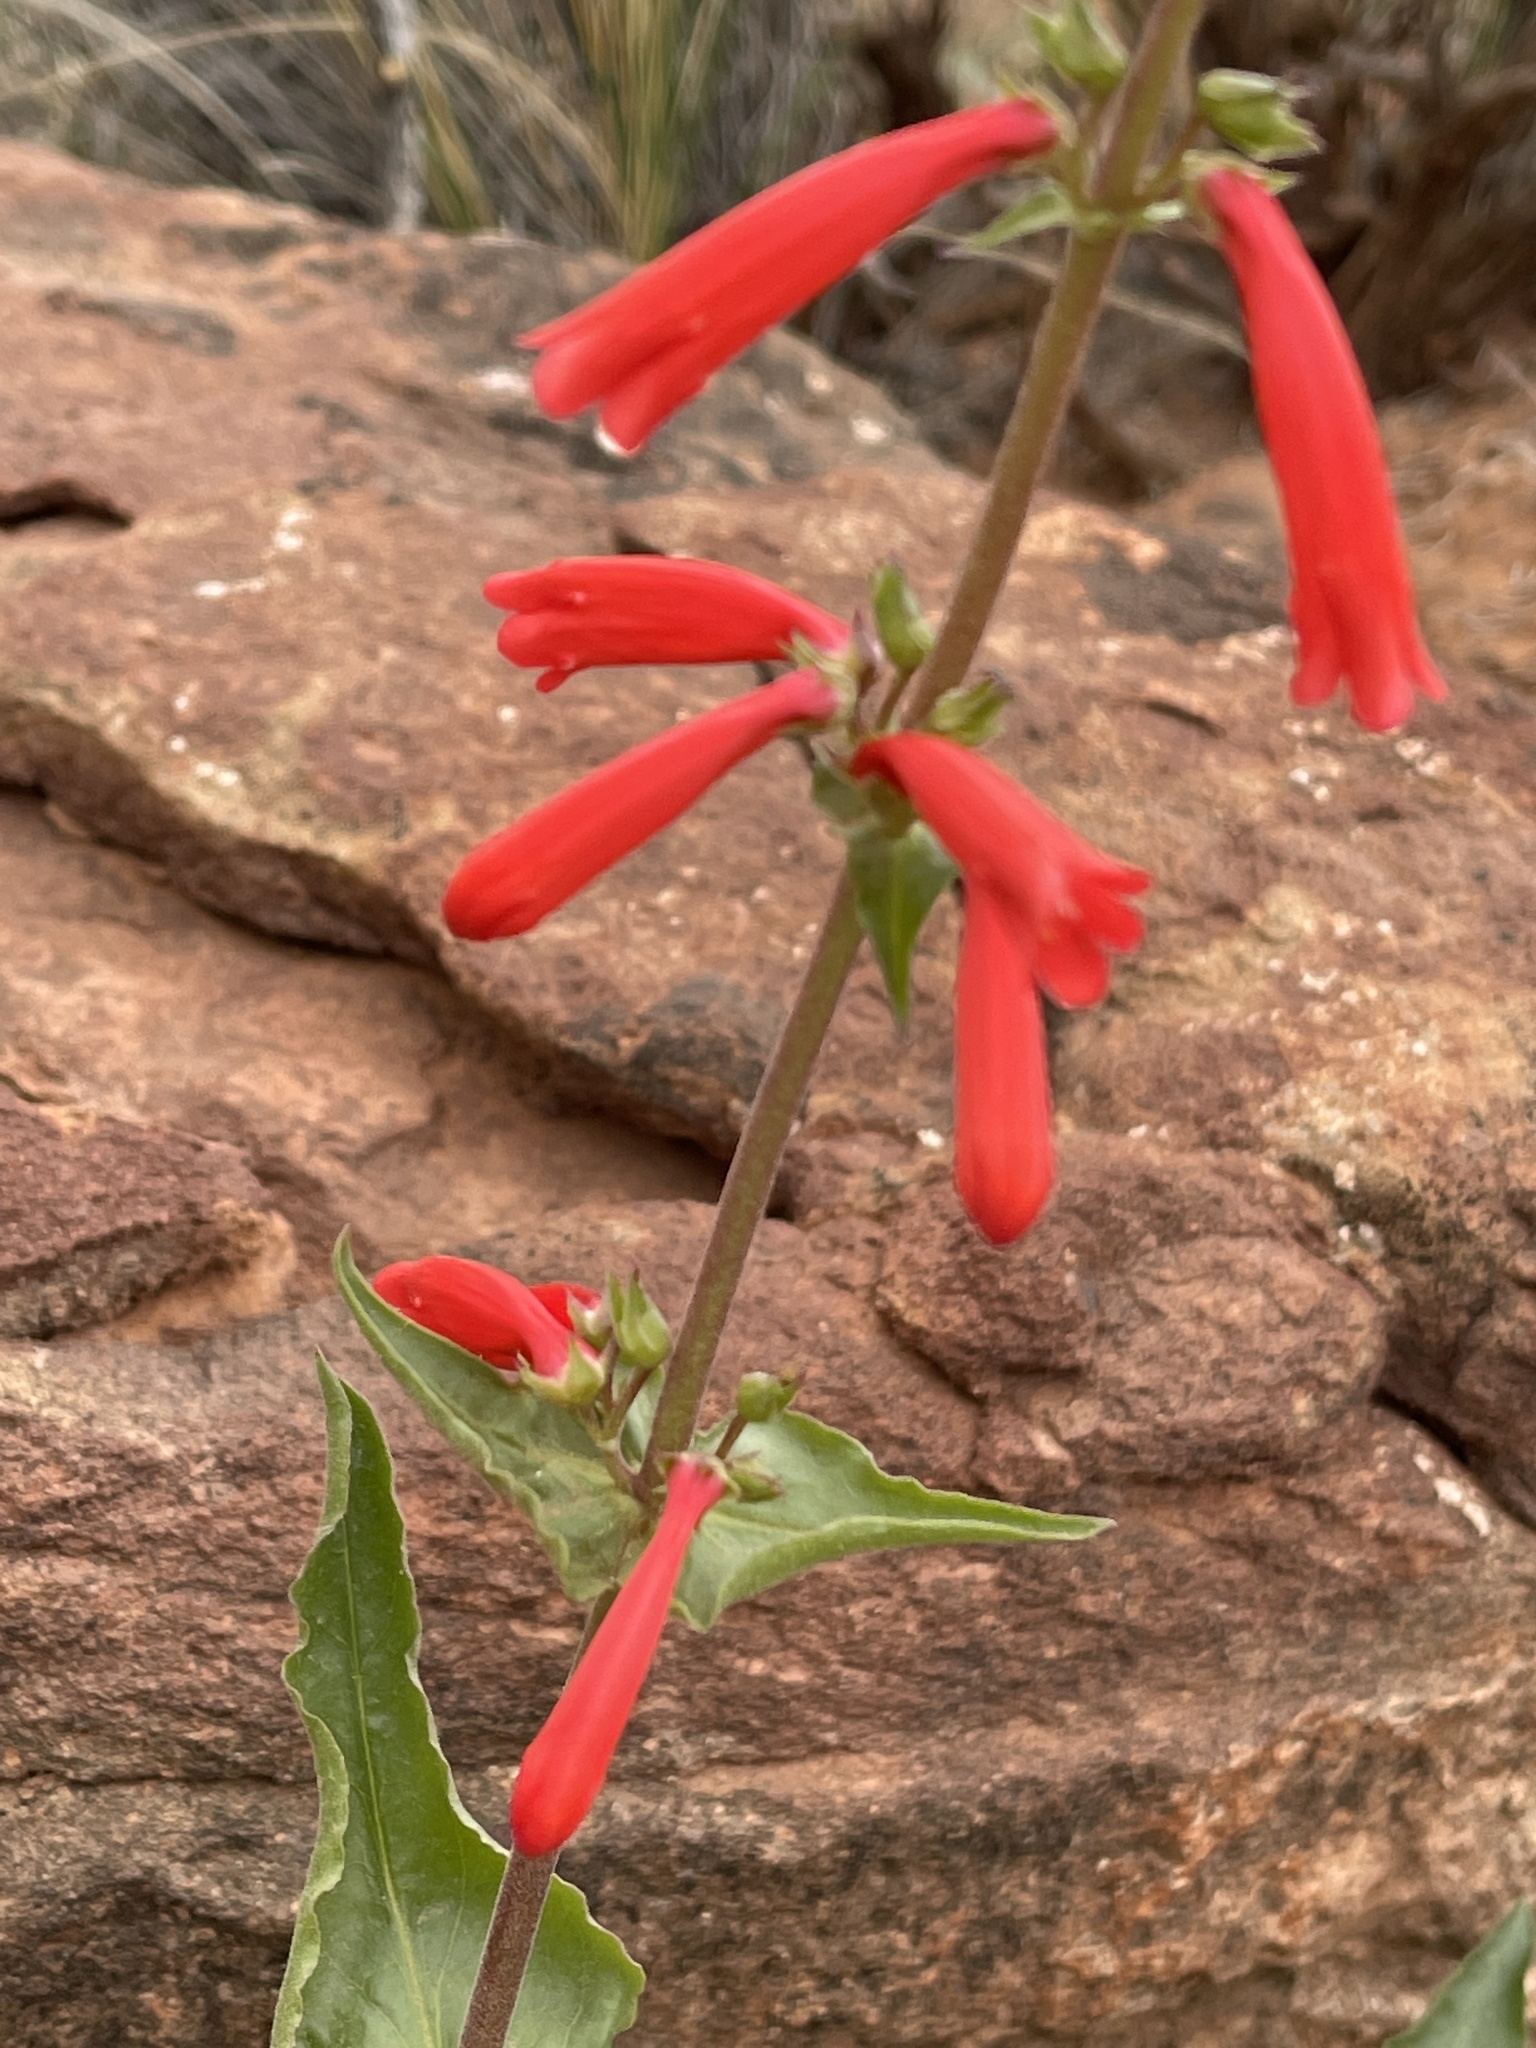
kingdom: Plantae
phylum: Tracheophyta
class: Magnoliopsida
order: Lamiales
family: Plantaginaceae
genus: Penstemon
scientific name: Penstemon eatonii
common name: Eaton's penstemon
